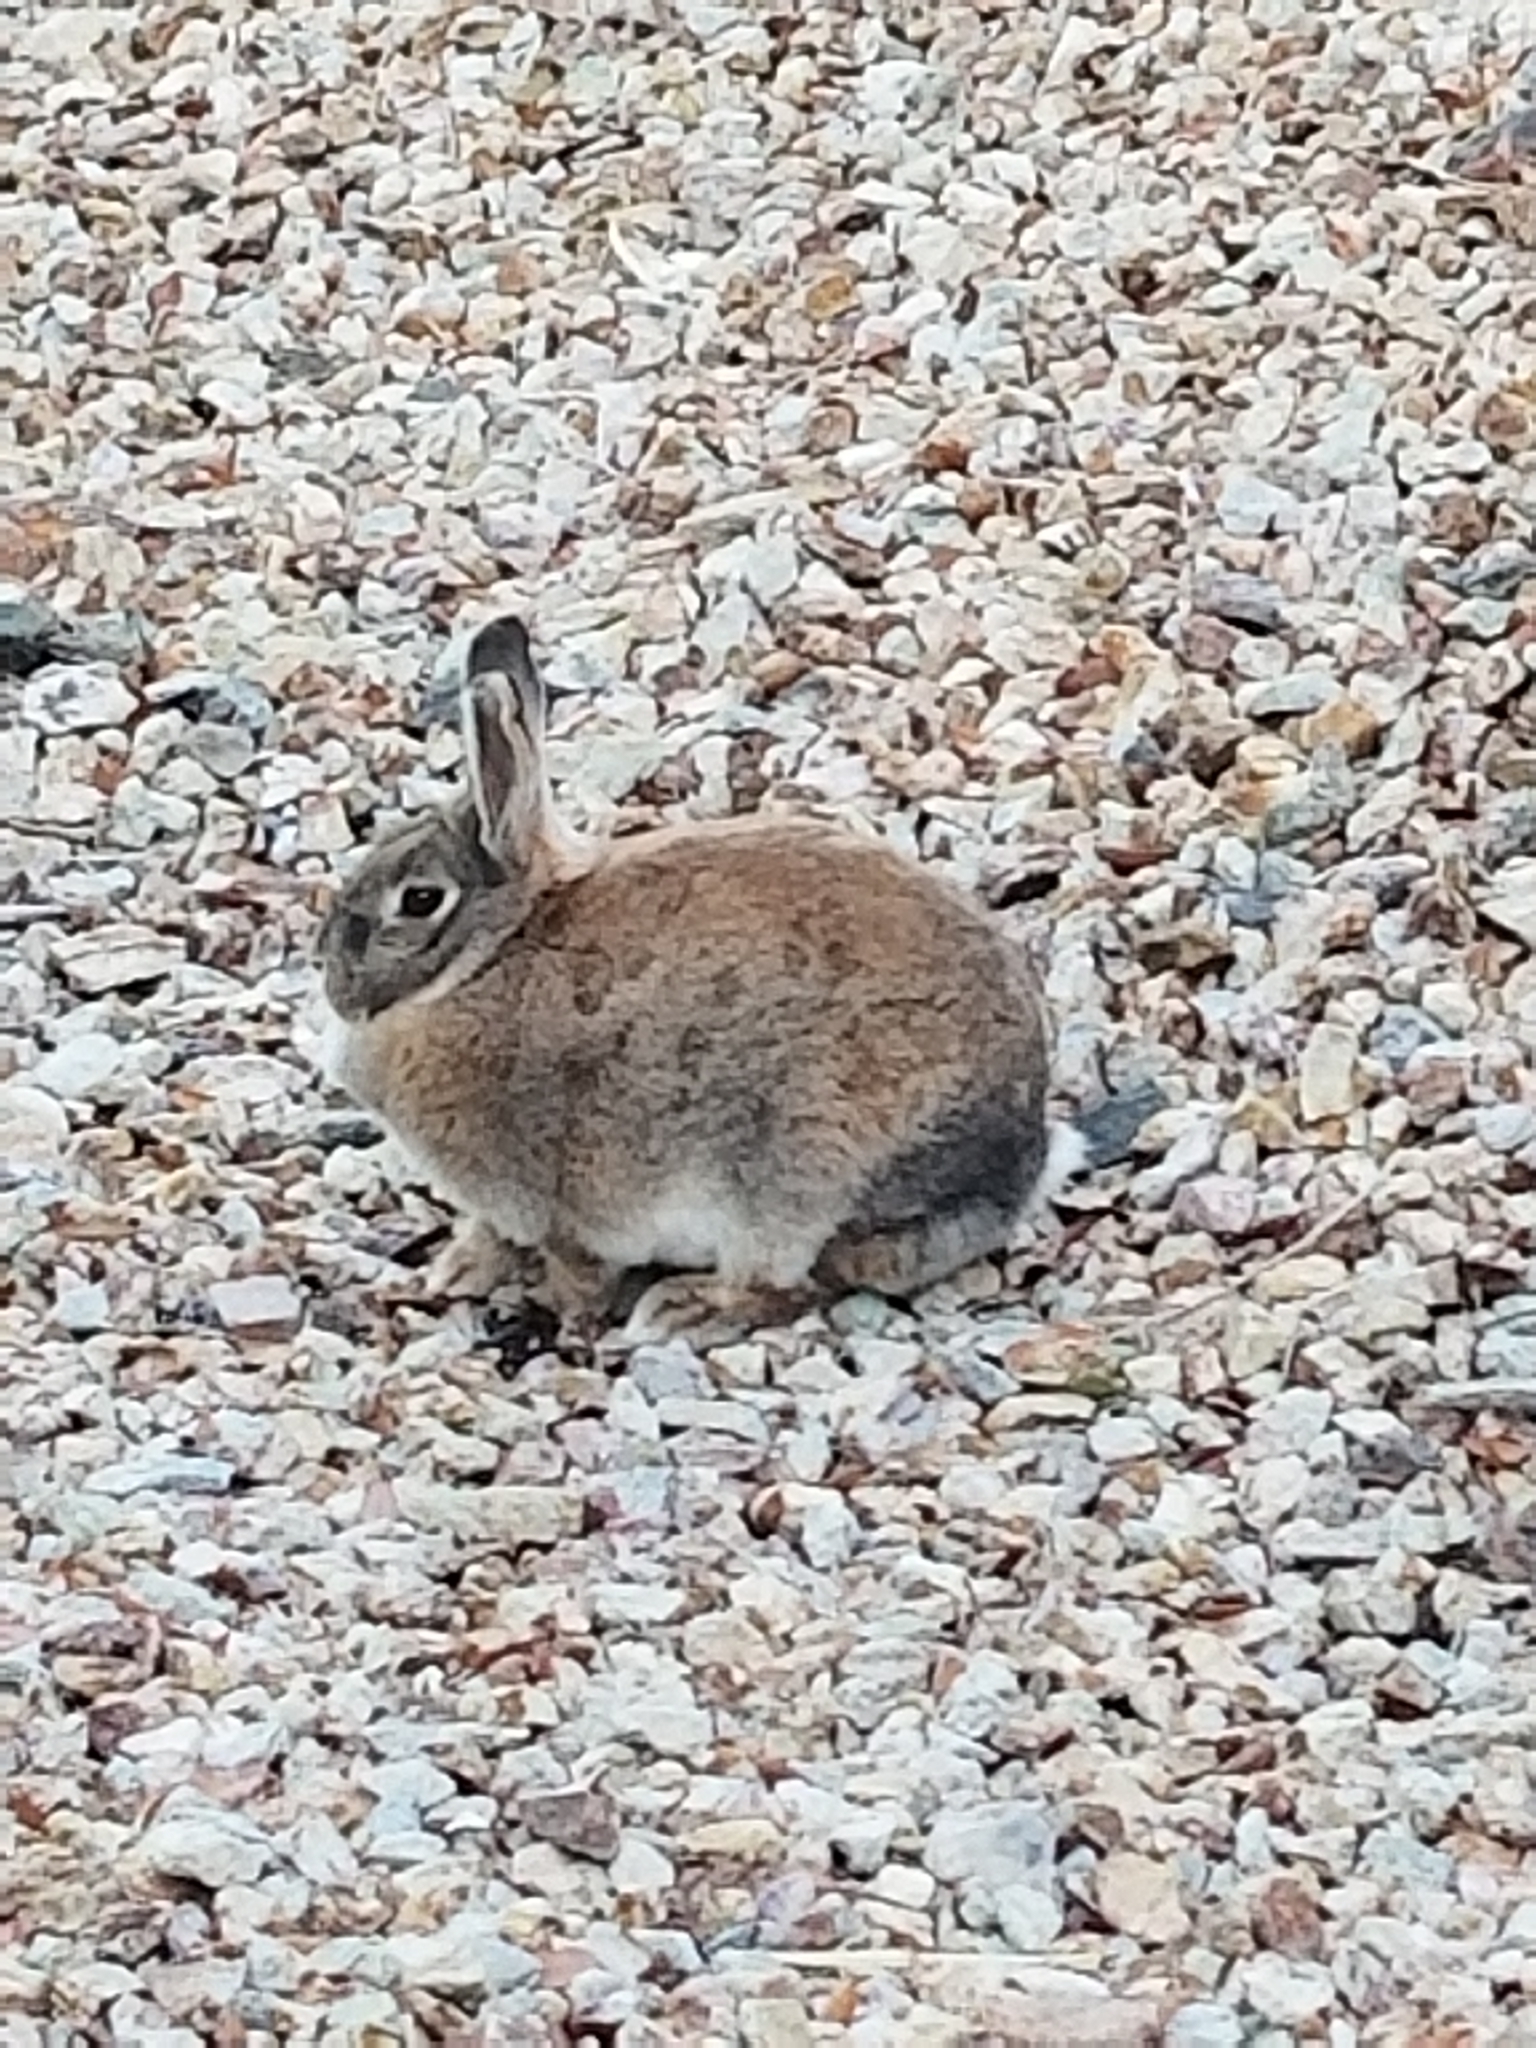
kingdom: Animalia
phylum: Chordata
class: Mammalia
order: Lagomorpha
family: Leporidae
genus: Sylvilagus
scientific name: Sylvilagus audubonii
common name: Desert cottontail
